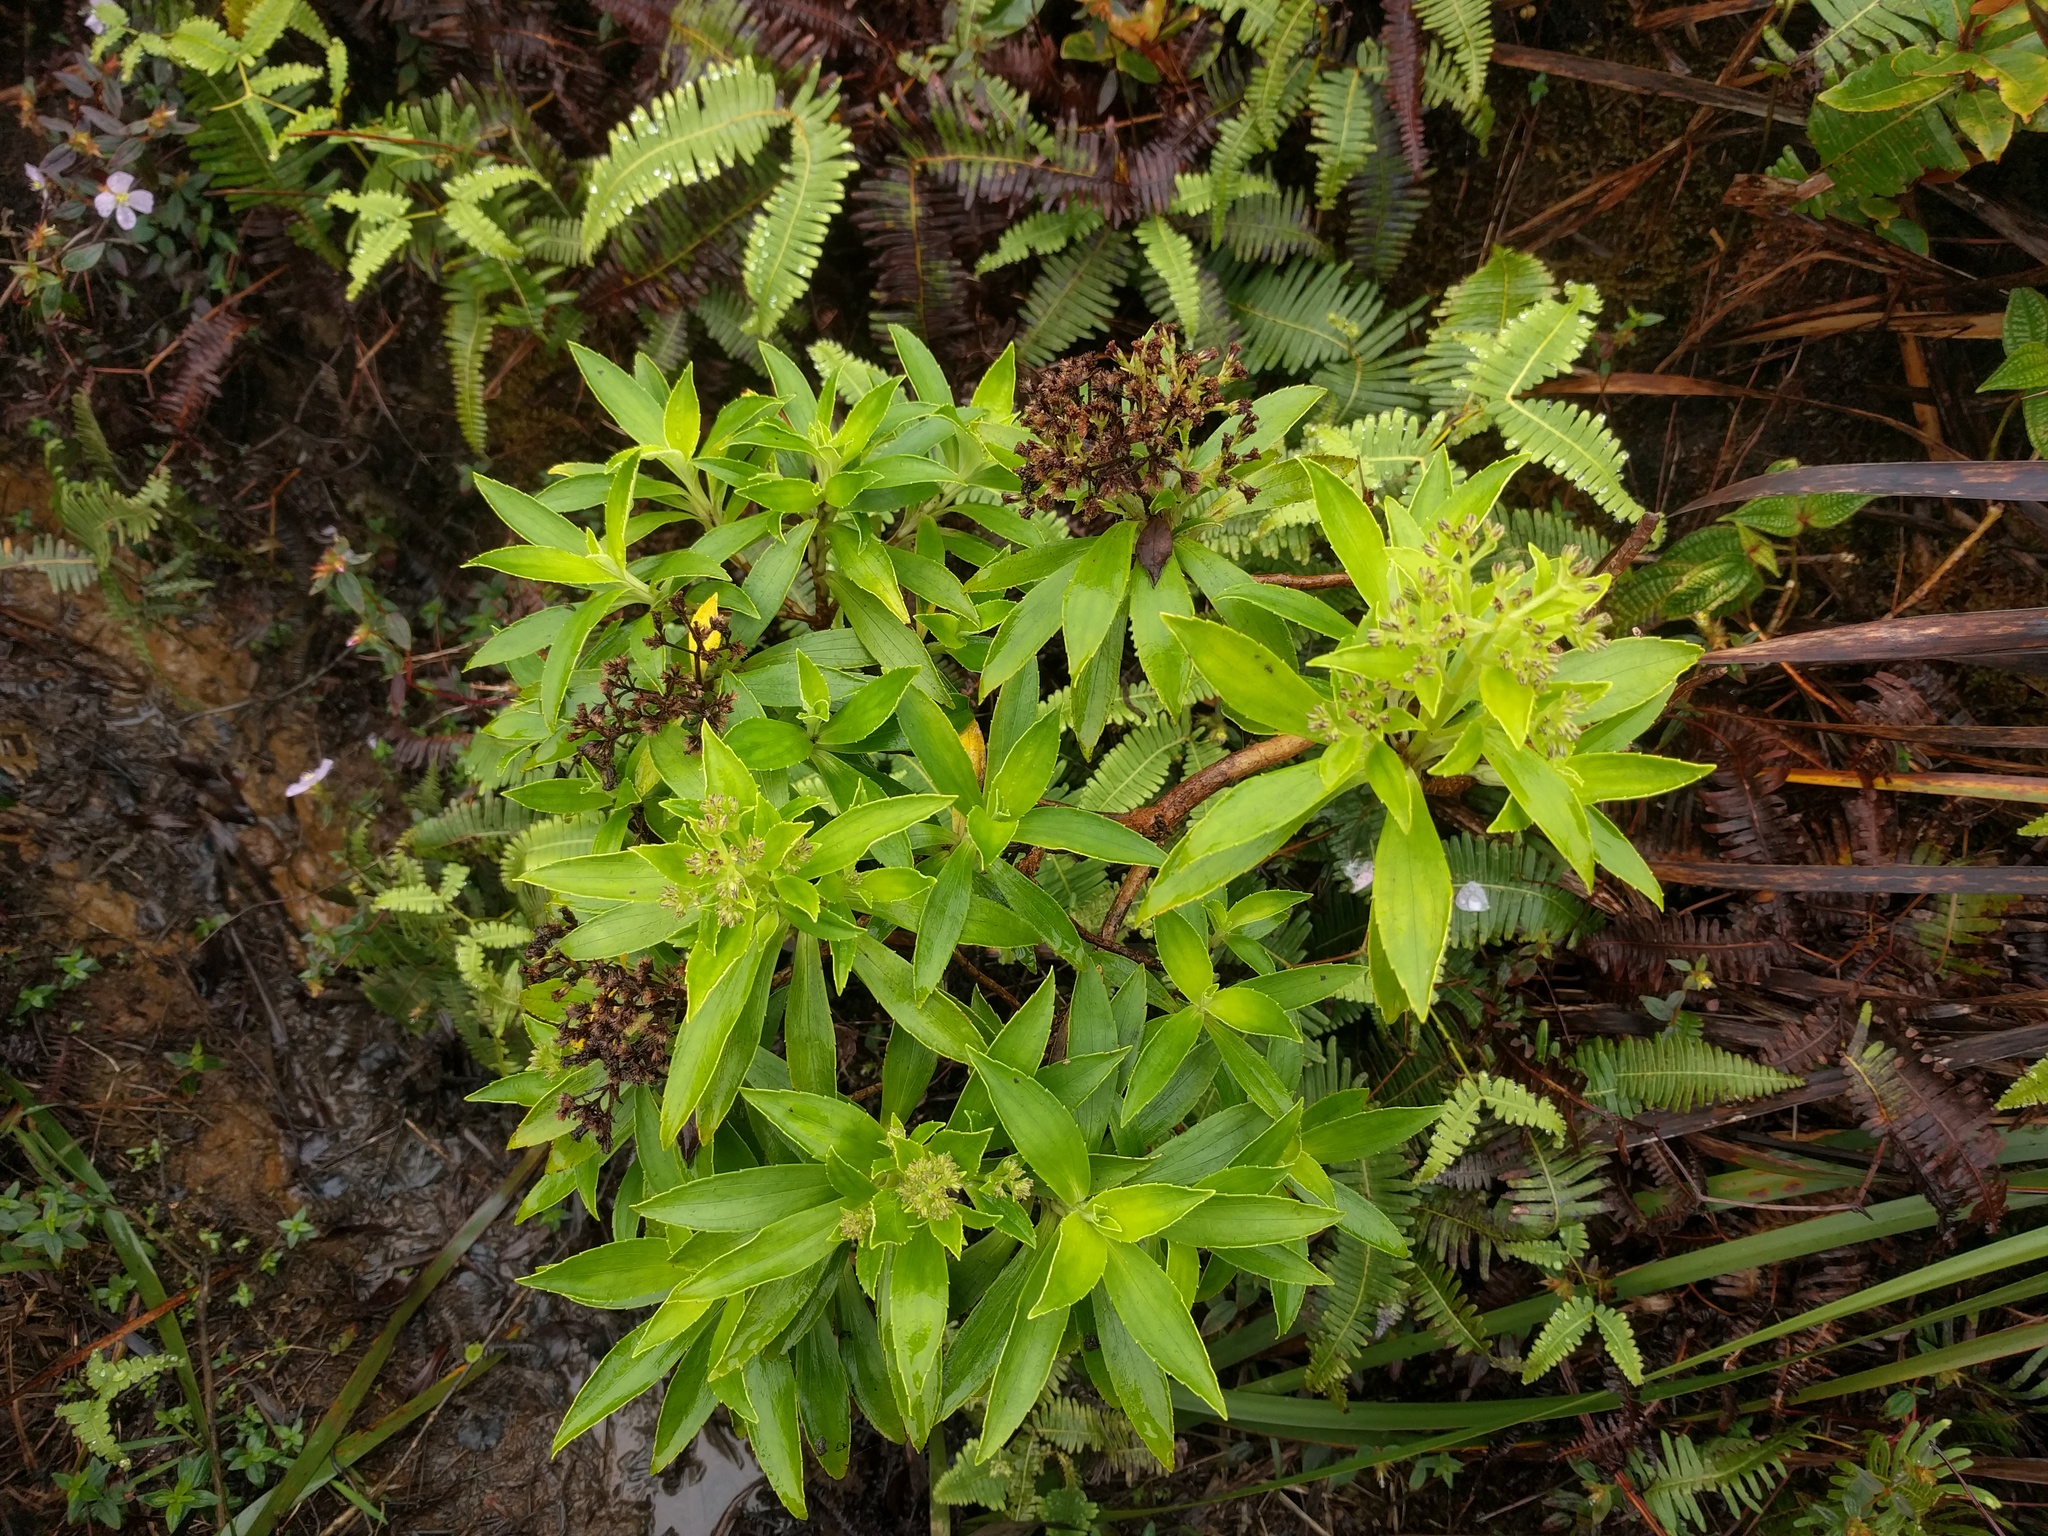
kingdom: Plantae
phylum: Tracheophyta
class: Magnoliopsida
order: Asterales
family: Asteraceae
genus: Dubautia
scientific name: Dubautia laxa
